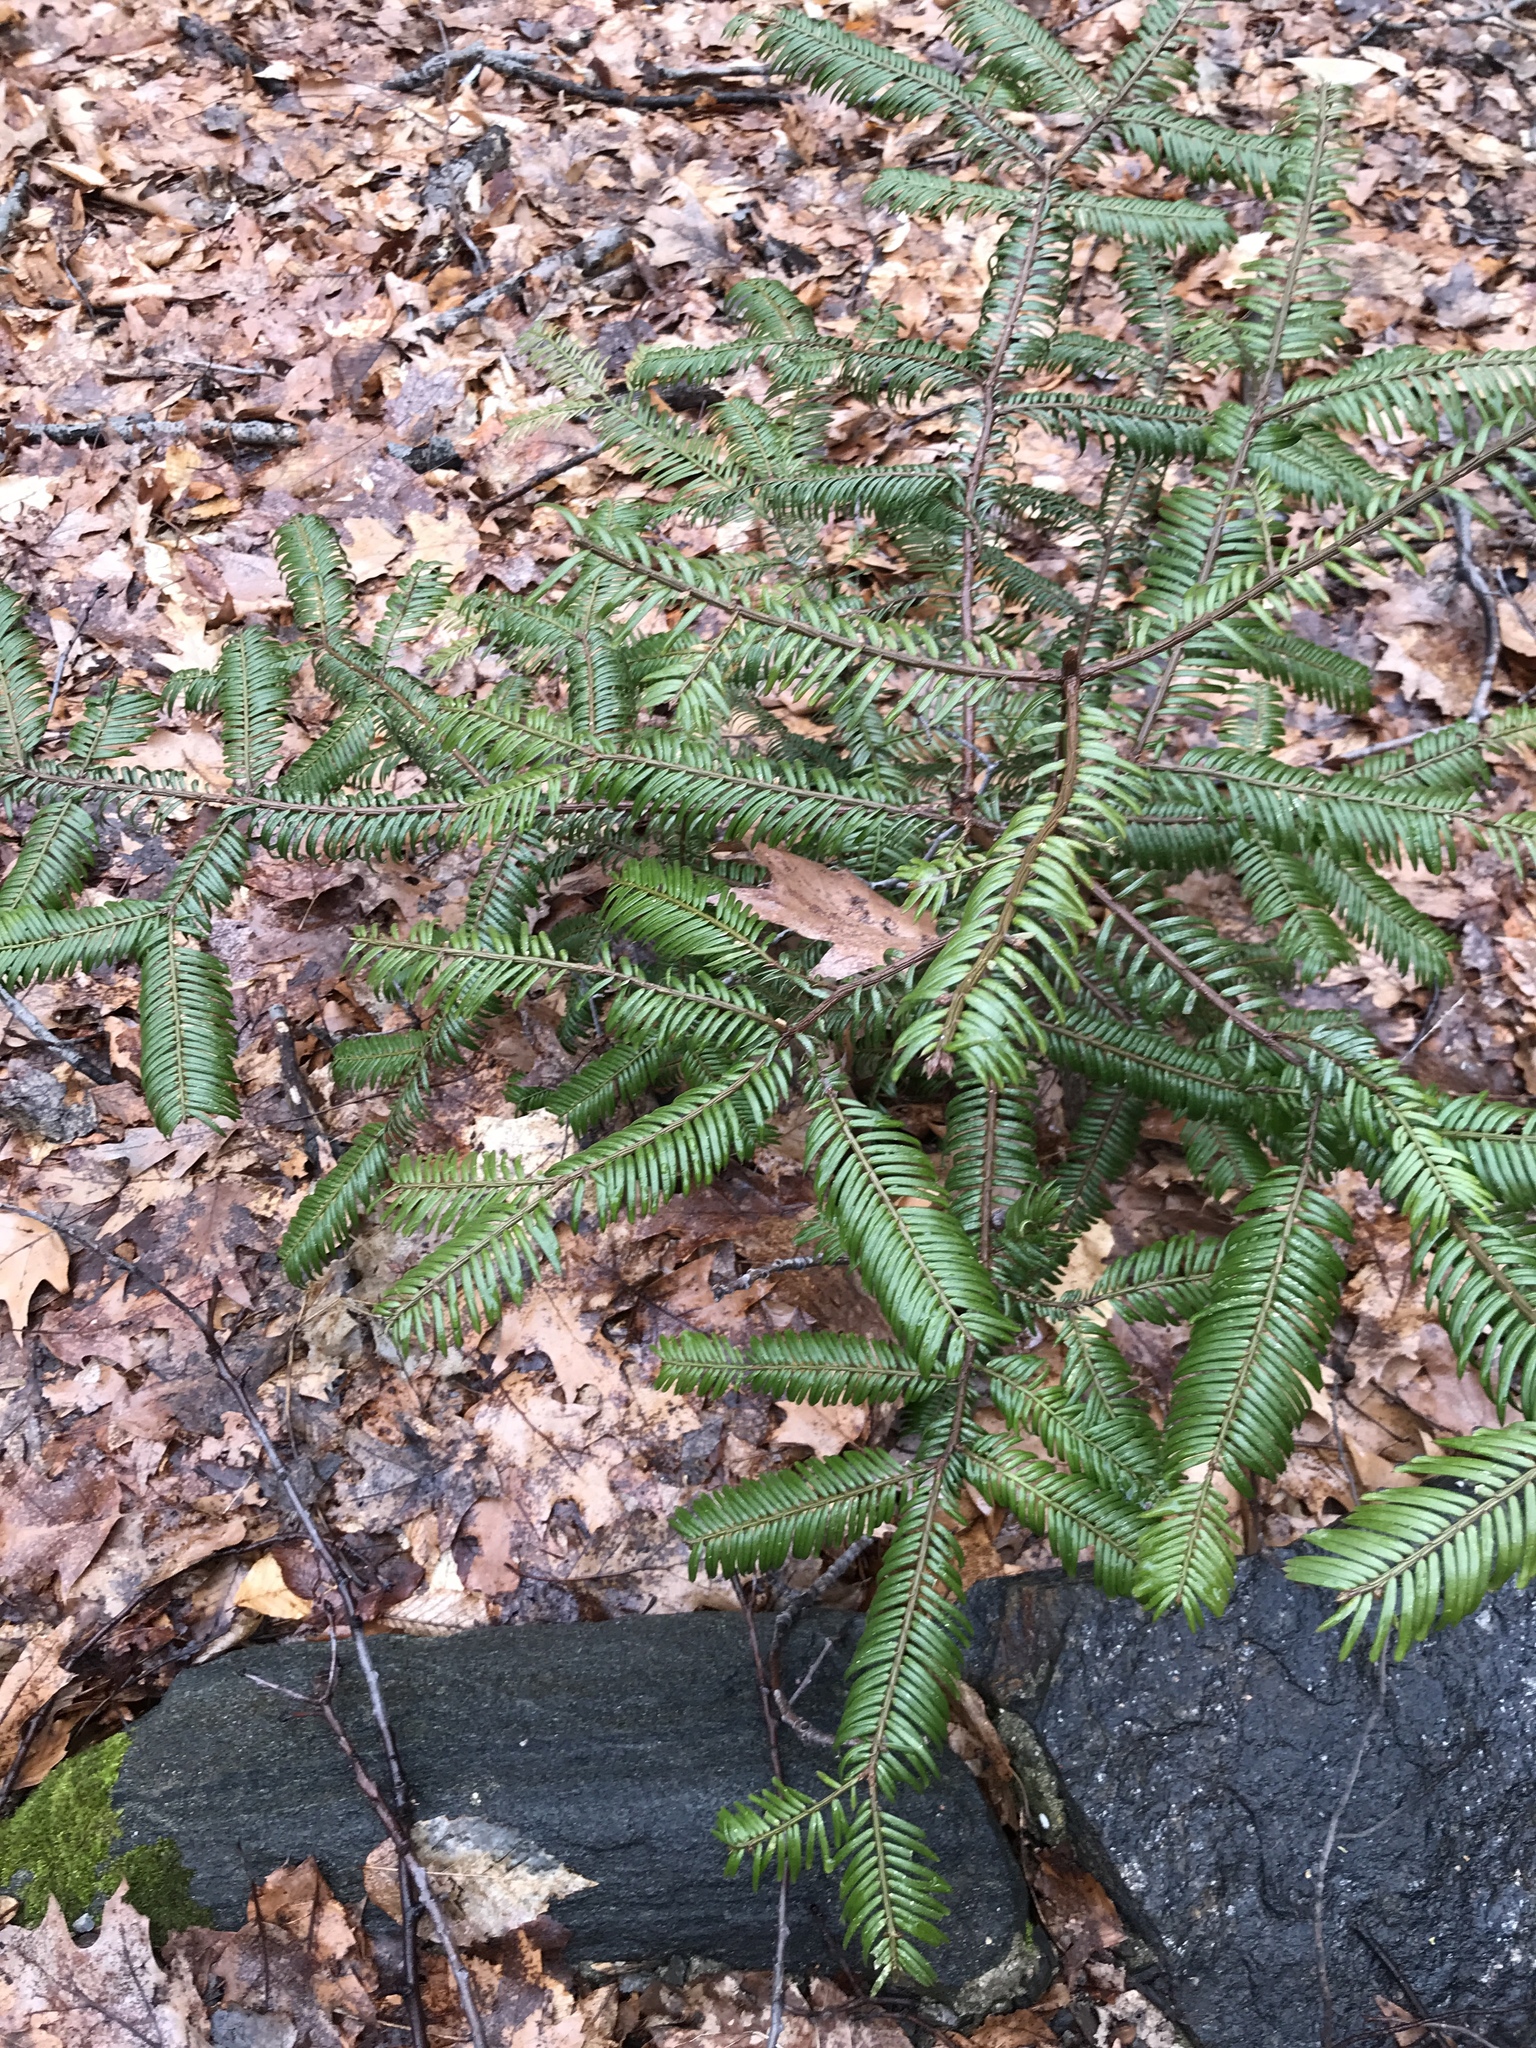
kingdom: Plantae
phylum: Tracheophyta
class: Pinopsida
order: Pinales
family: Cephalotaxaceae
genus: Cephalotaxus
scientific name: Cephalotaxus harringtonia
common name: Japanese plum-yew
